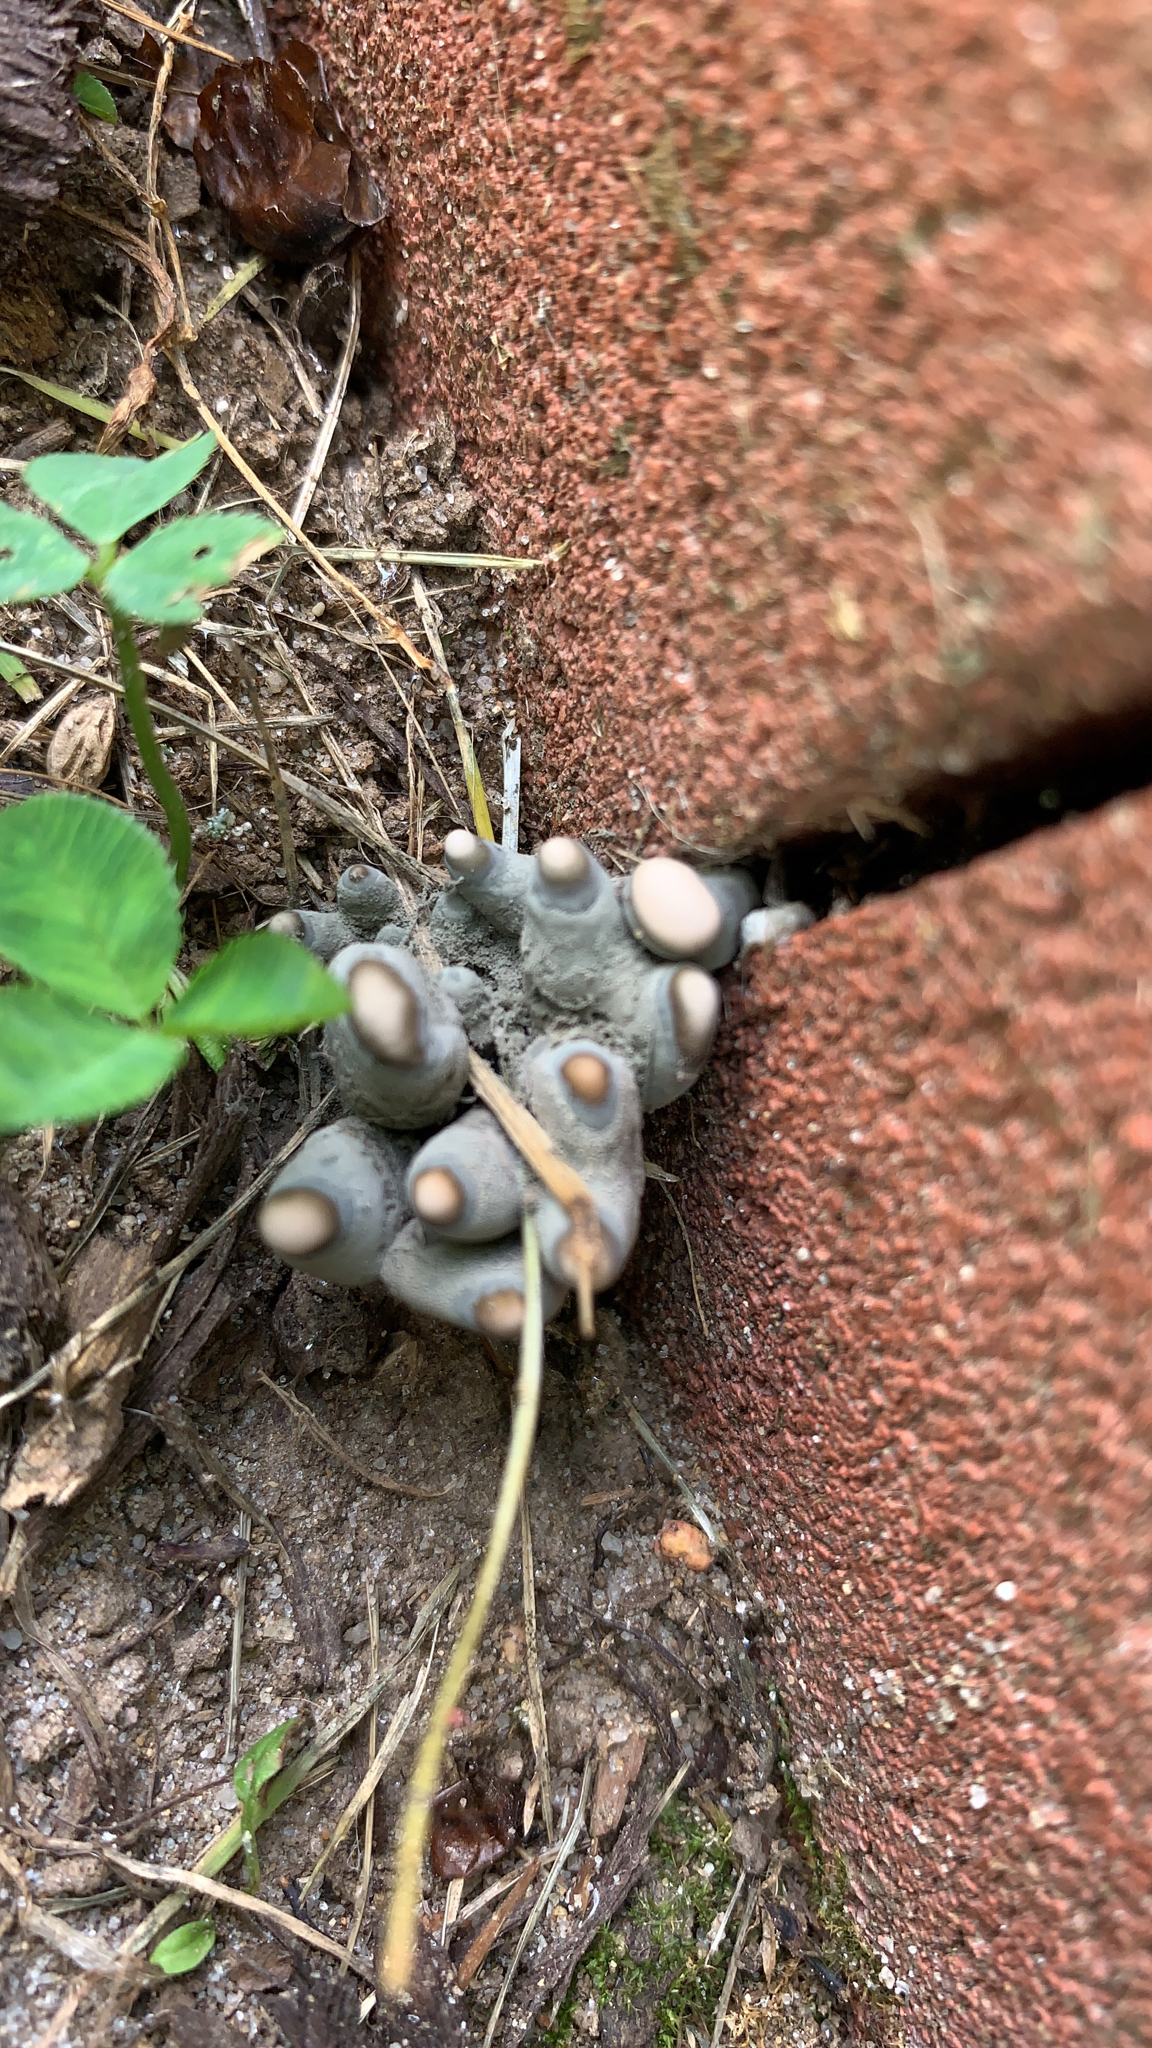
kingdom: Fungi
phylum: Ascomycota
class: Sordariomycetes
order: Xylariales
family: Xylariaceae
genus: Xylaria
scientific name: Xylaria polymorpha
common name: Dead man's fingers
